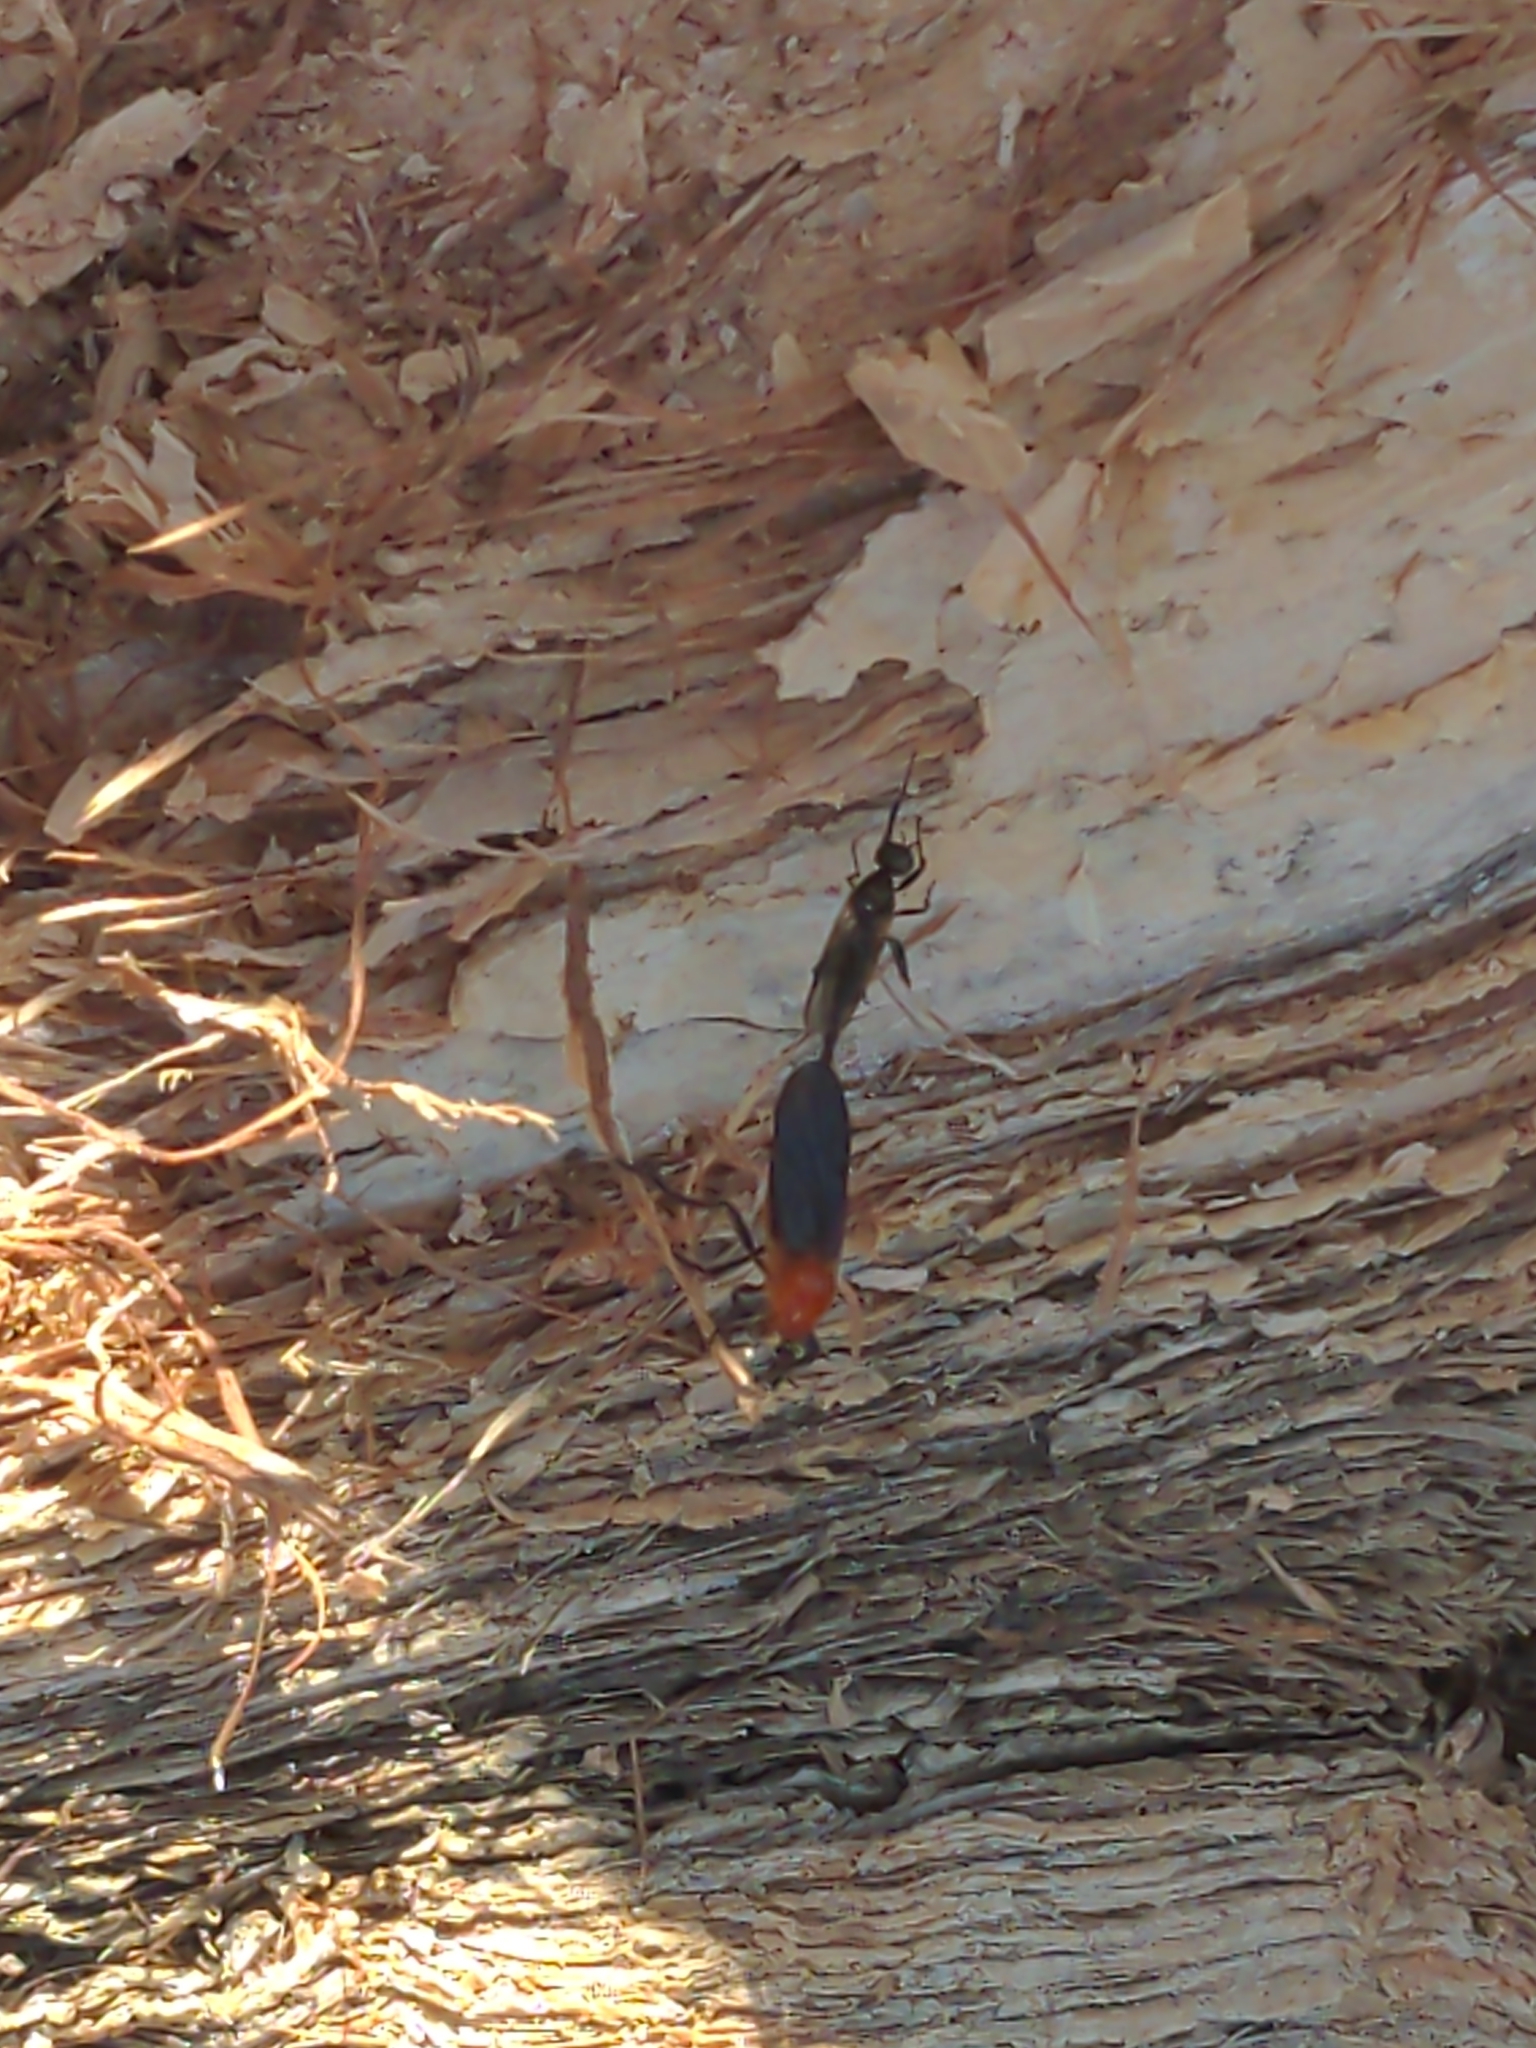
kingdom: Animalia
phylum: Arthropoda
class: Insecta
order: Diptera
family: Bibionidae
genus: Bibio
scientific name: Bibio imitator
